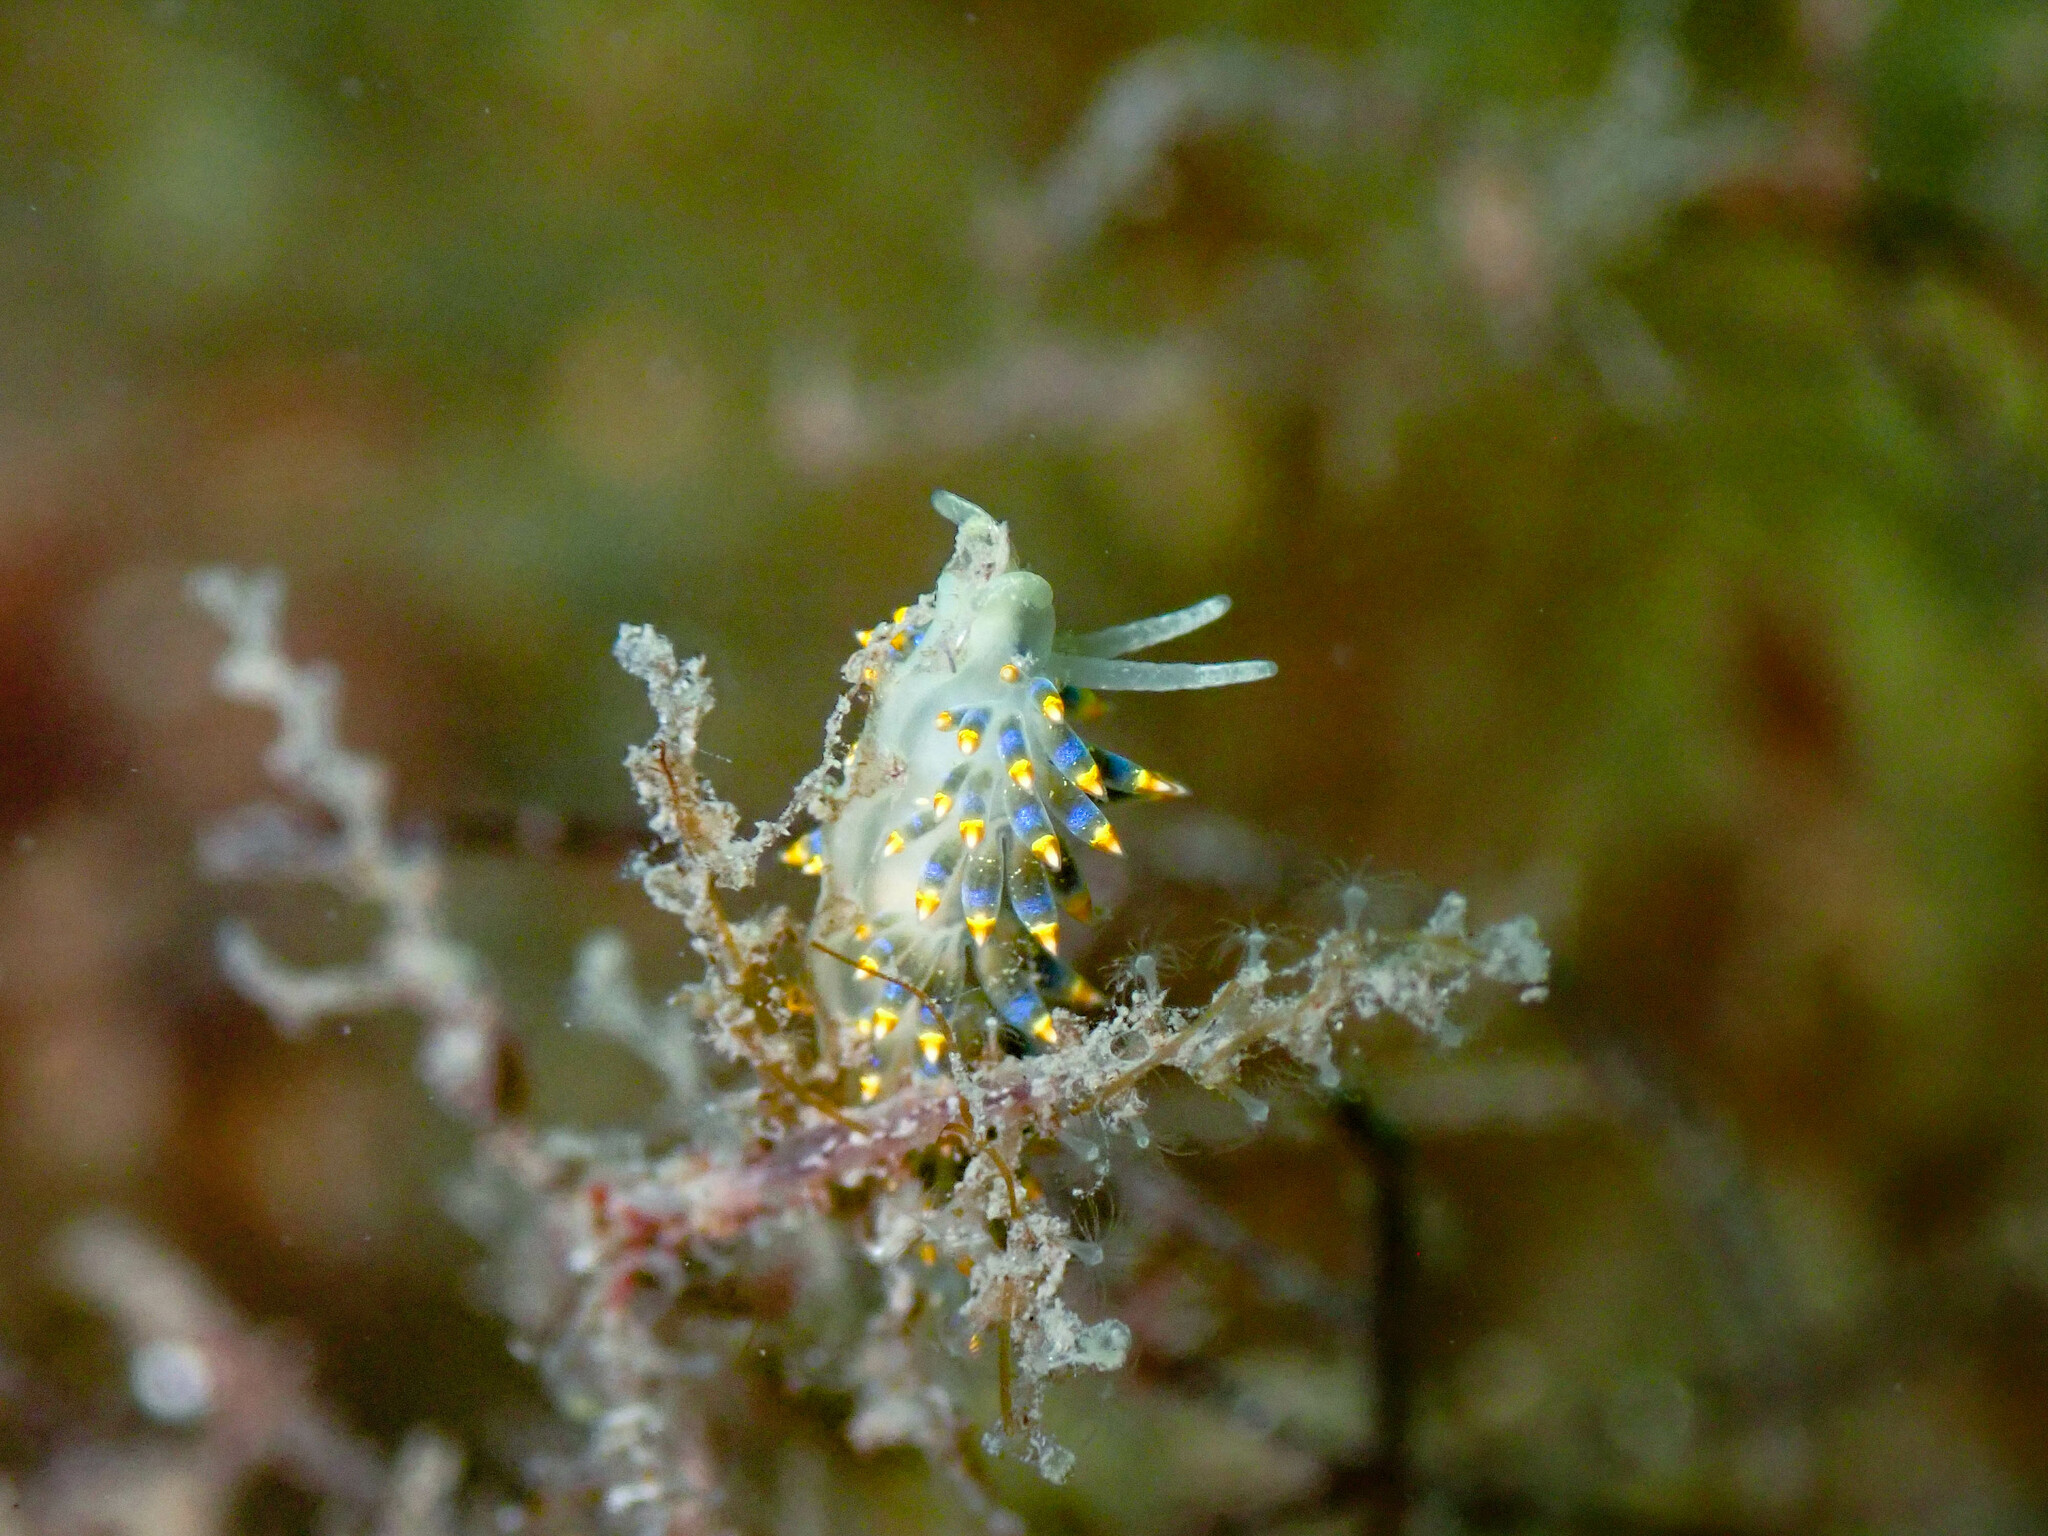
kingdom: Animalia
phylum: Mollusca
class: Gastropoda
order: Nudibranchia
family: Trinchesiidae
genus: Trinchesia
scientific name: Trinchesia cuanensis
